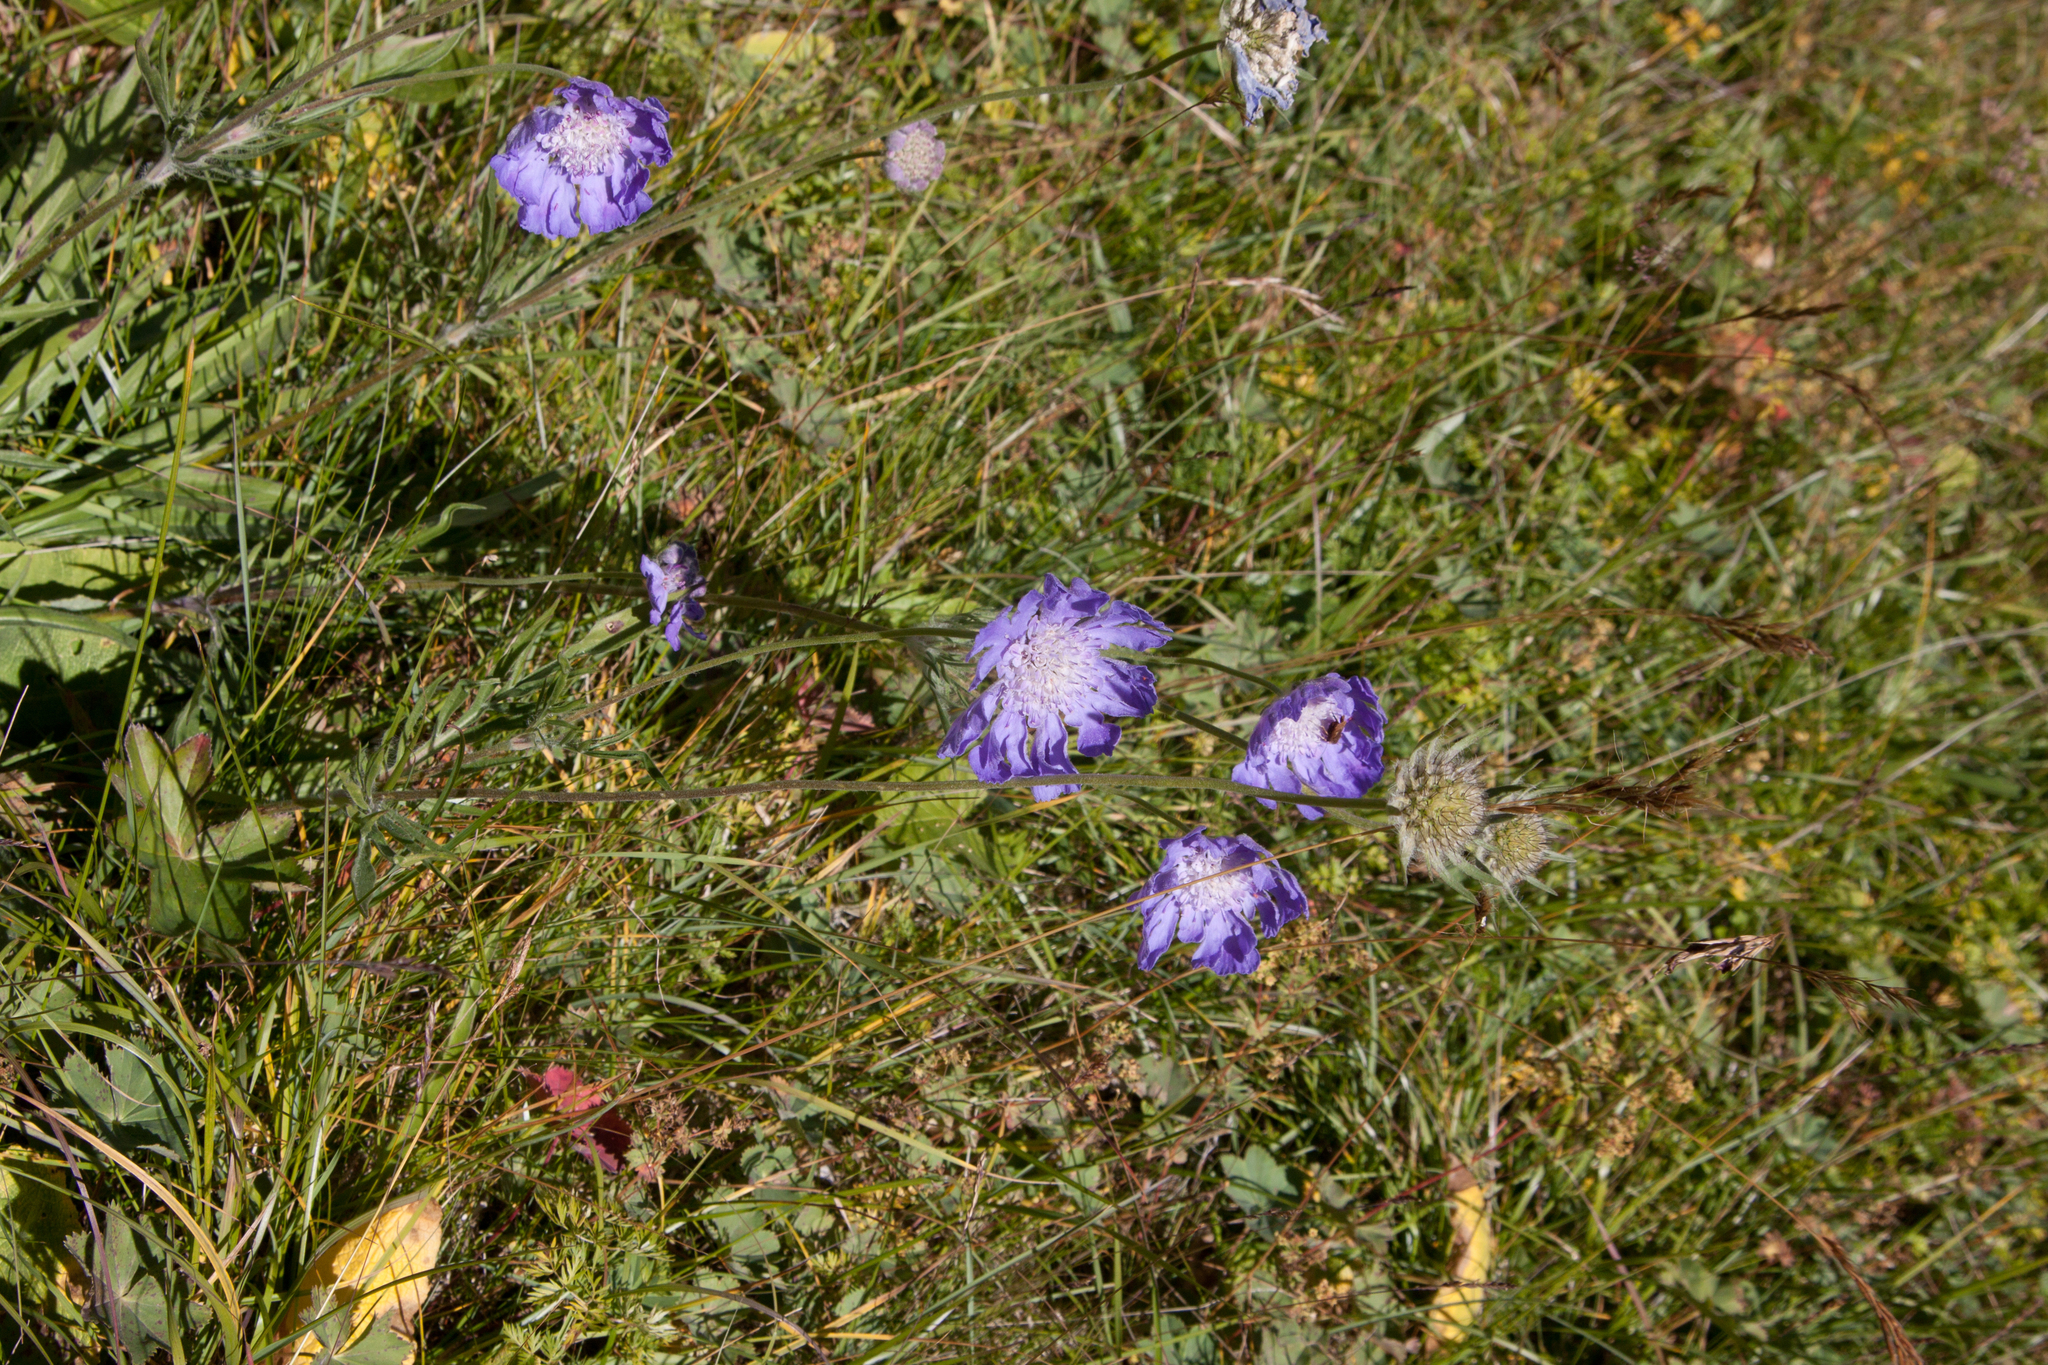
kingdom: Plantae
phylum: Tracheophyta
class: Magnoliopsida
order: Dipsacales
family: Caprifoliaceae
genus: Lomelosia
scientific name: Lomelosia caucasica
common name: Pincushion-flower
